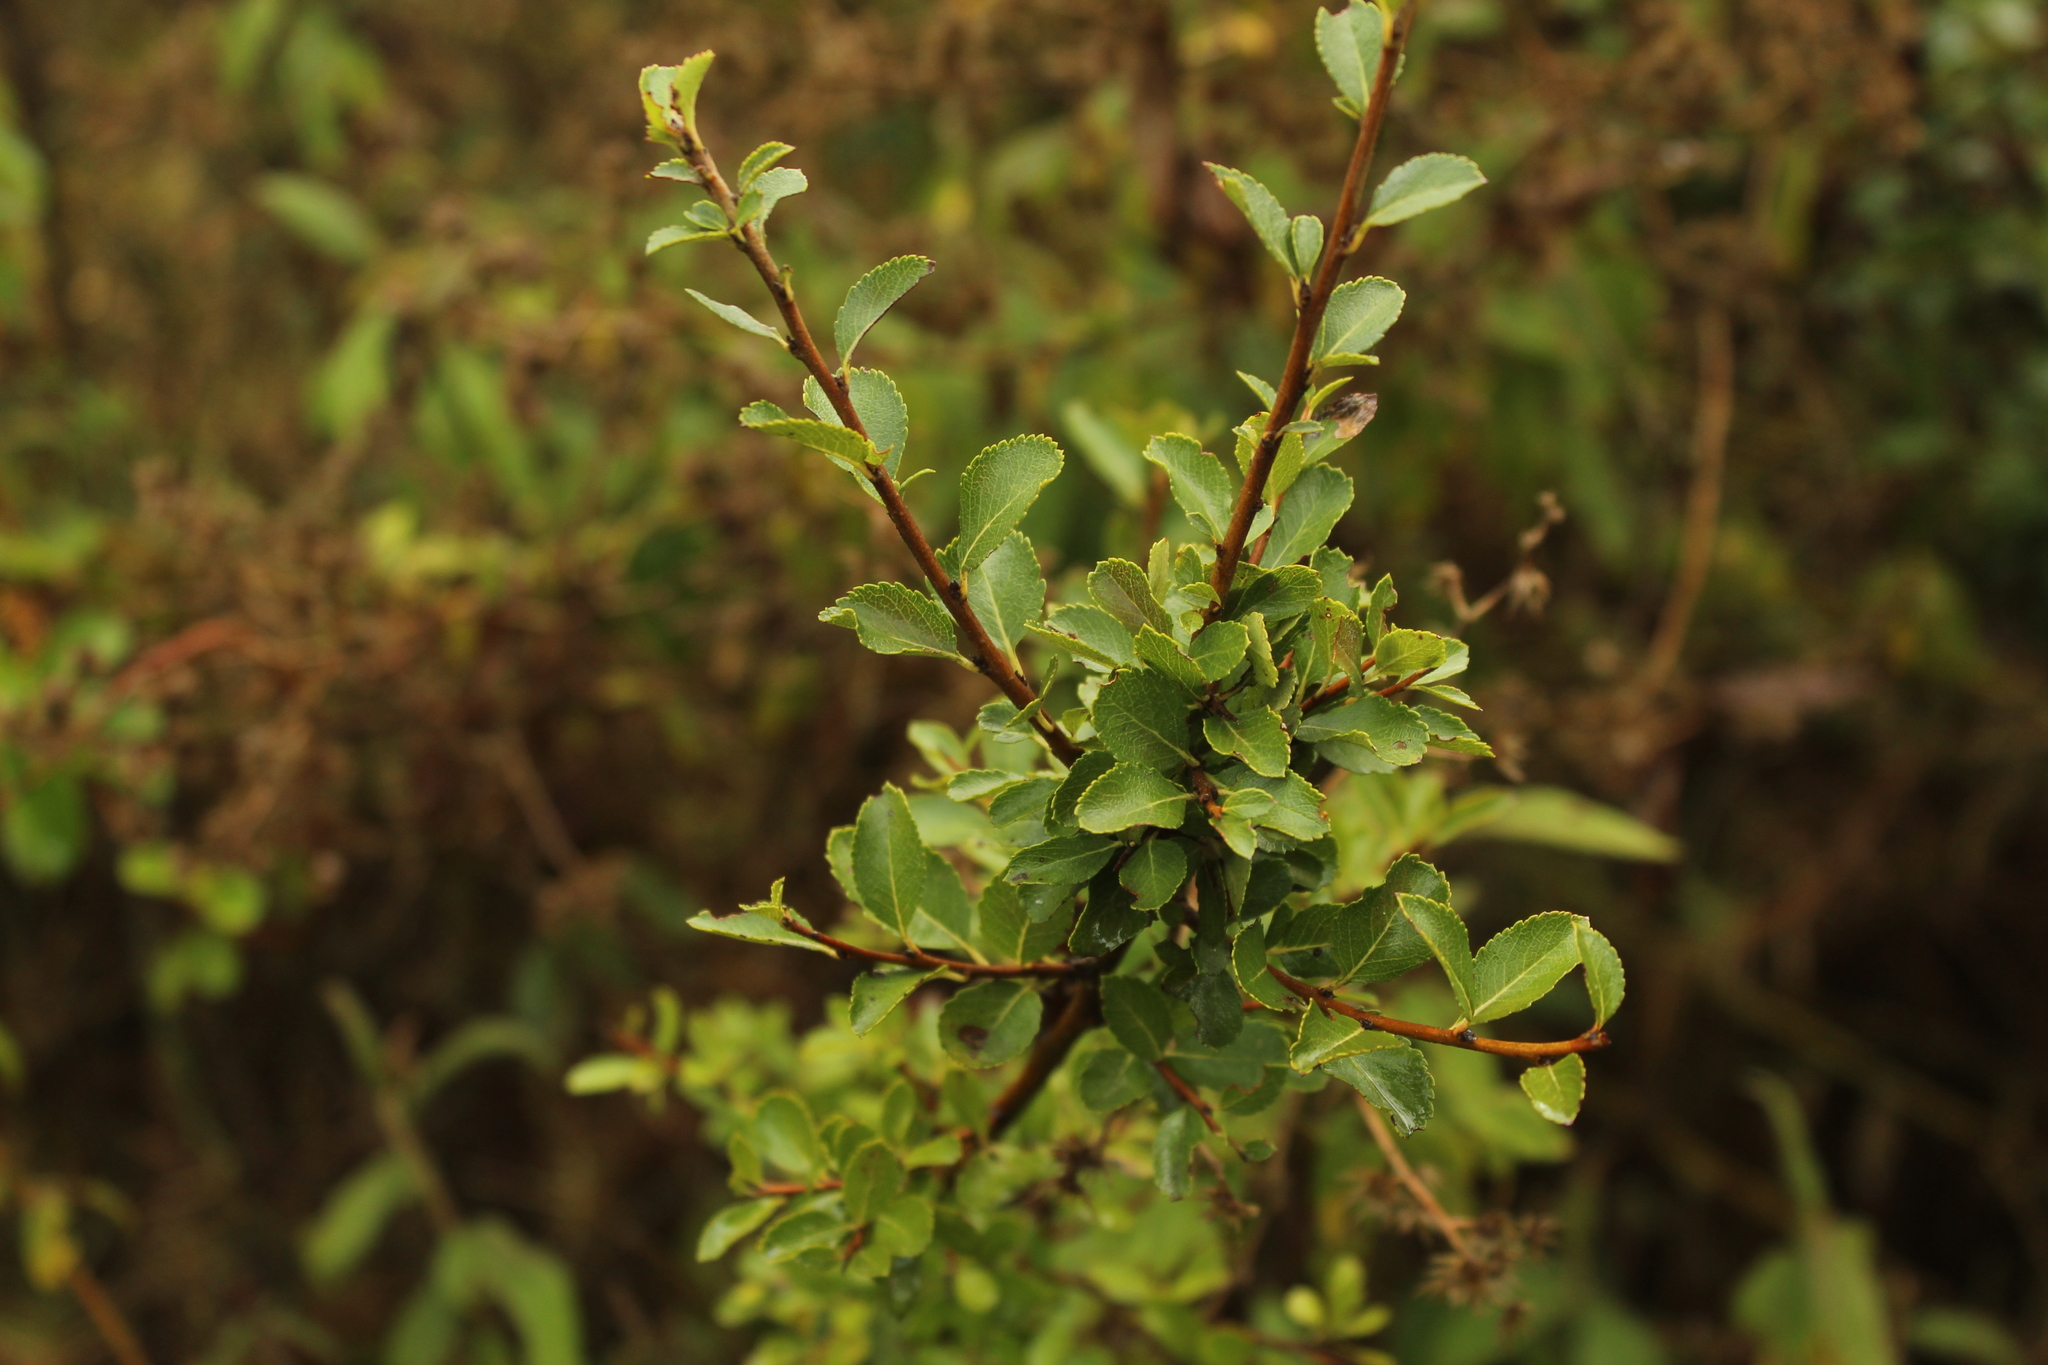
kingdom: Plantae
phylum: Tracheophyta
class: Magnoliopsida
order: Rosales
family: Rosaceae
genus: Hesperomeles
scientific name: Hesperomeles obtusifolia
